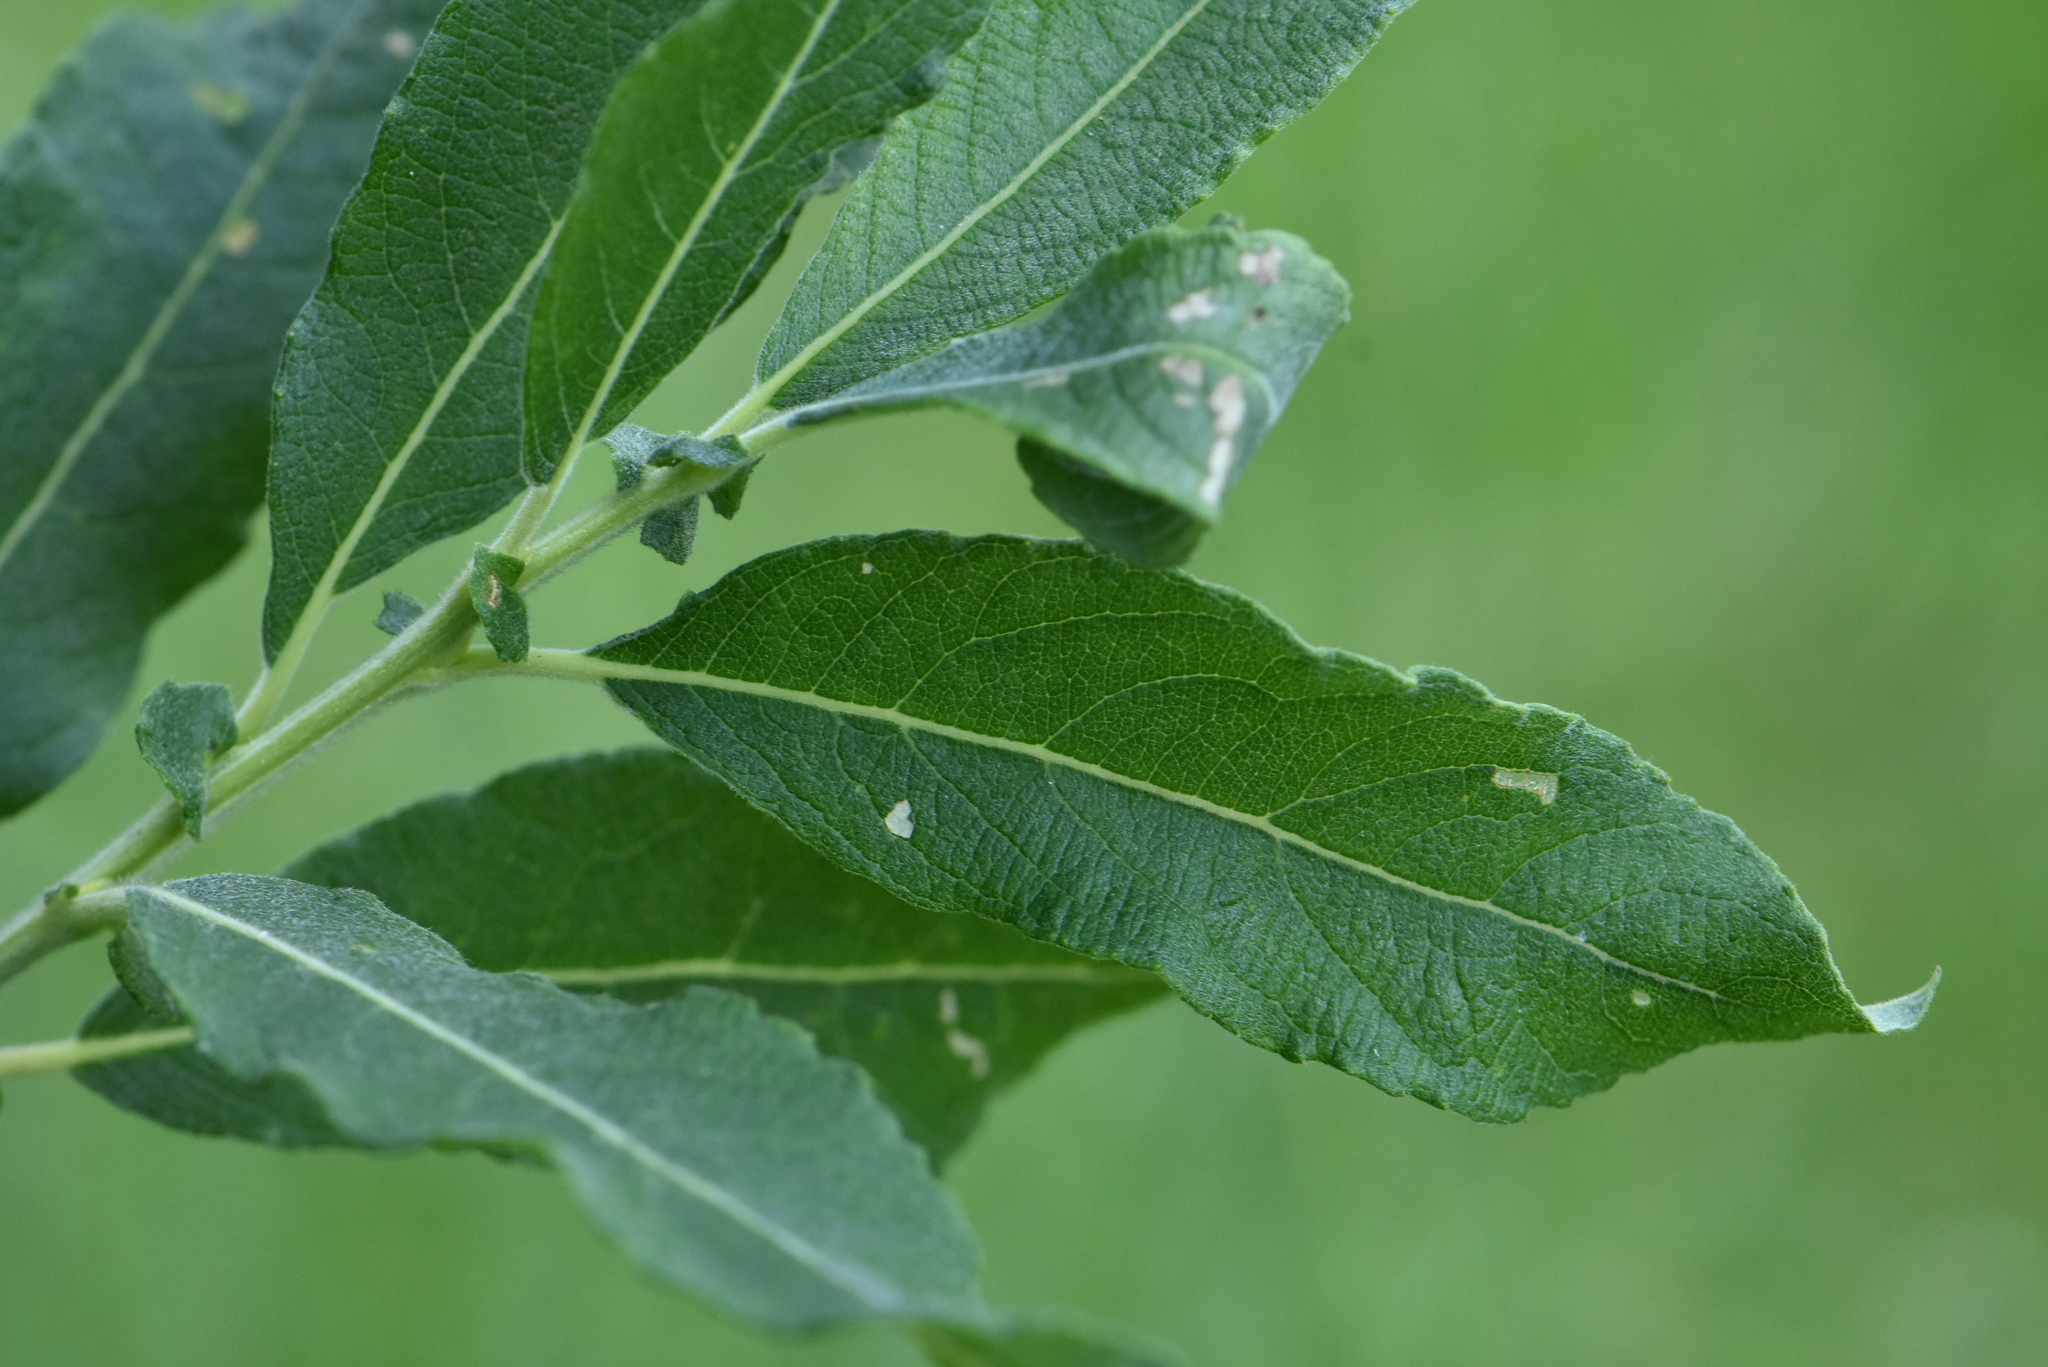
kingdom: Plantae
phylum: Tracheophyta
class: Magnoliopsida
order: Malpighiales
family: Salicaceae
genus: Salix
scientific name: Salix cinerea
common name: Common sallow
